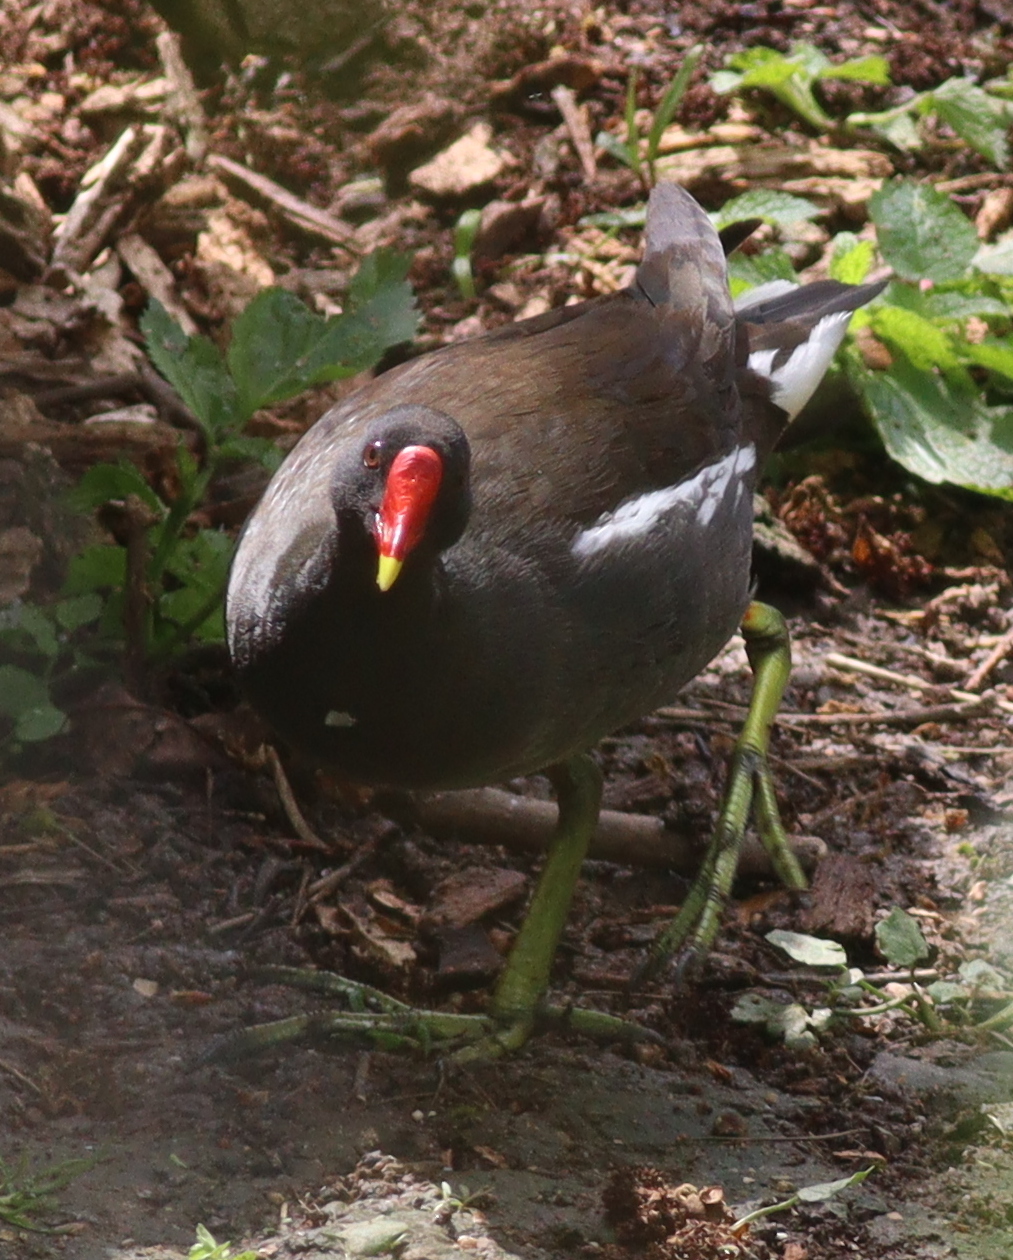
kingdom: Animalia
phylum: Chordata
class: Aves
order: Gruiformes
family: Rallidae
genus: Gallinula
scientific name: Gallinula chloropus
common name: Common moorhen
